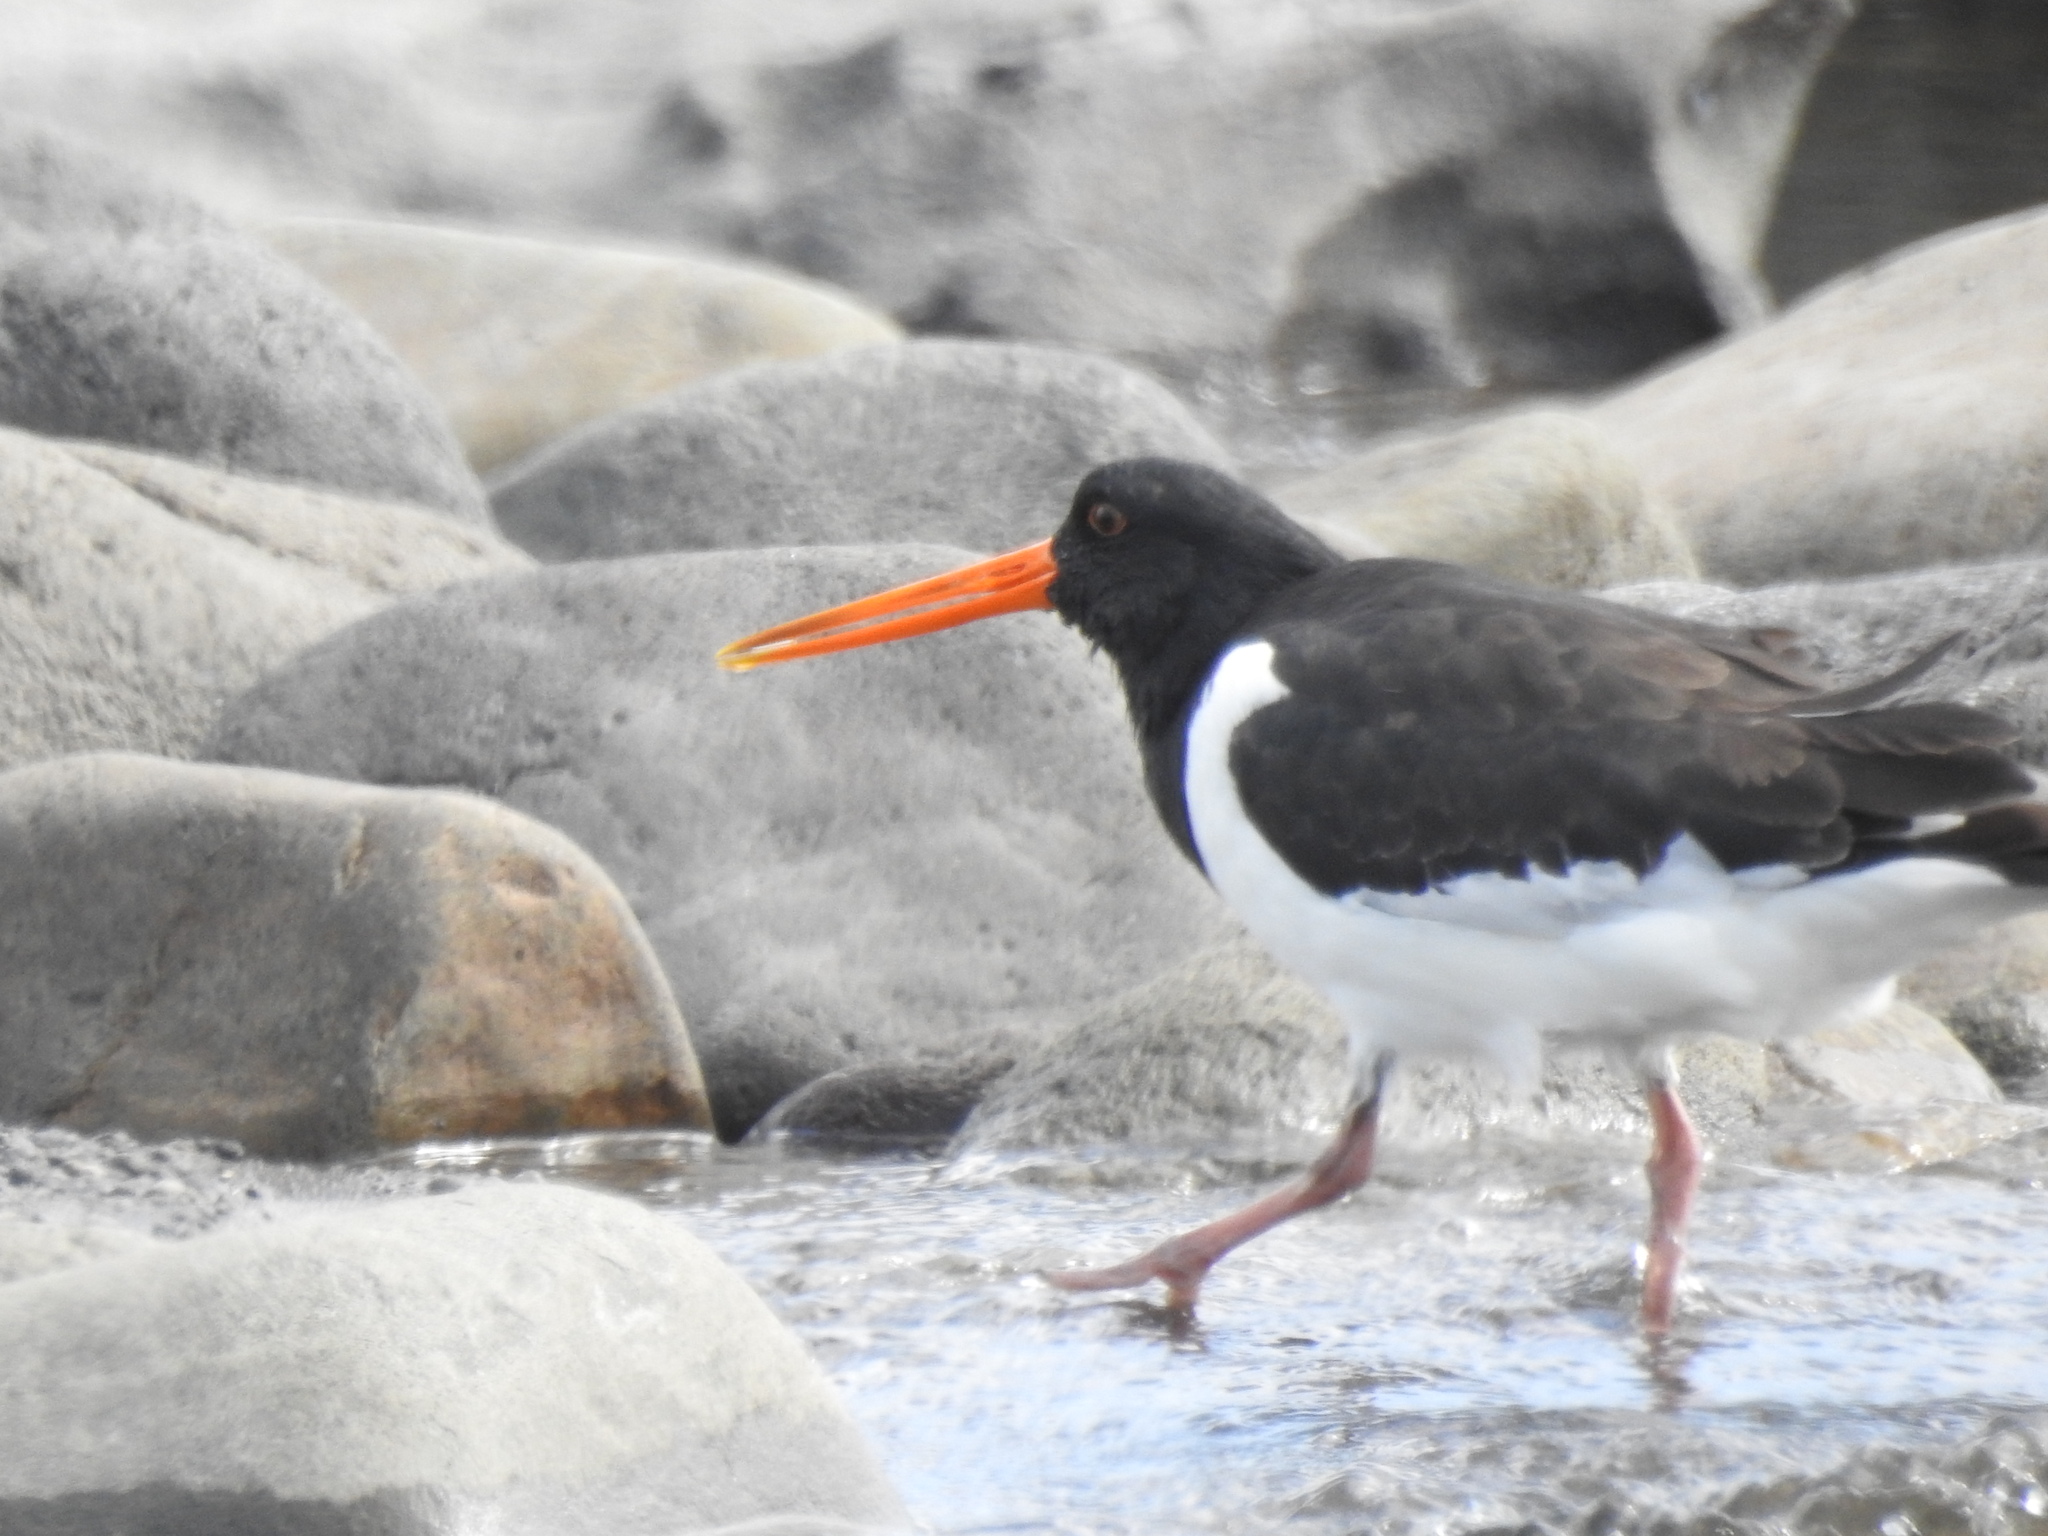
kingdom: Animalia
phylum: Chordata
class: Aves
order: Charadriiformes
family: Haematopodidae
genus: Haematopus
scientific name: Haematopus finschi
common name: South island oystercatcher
